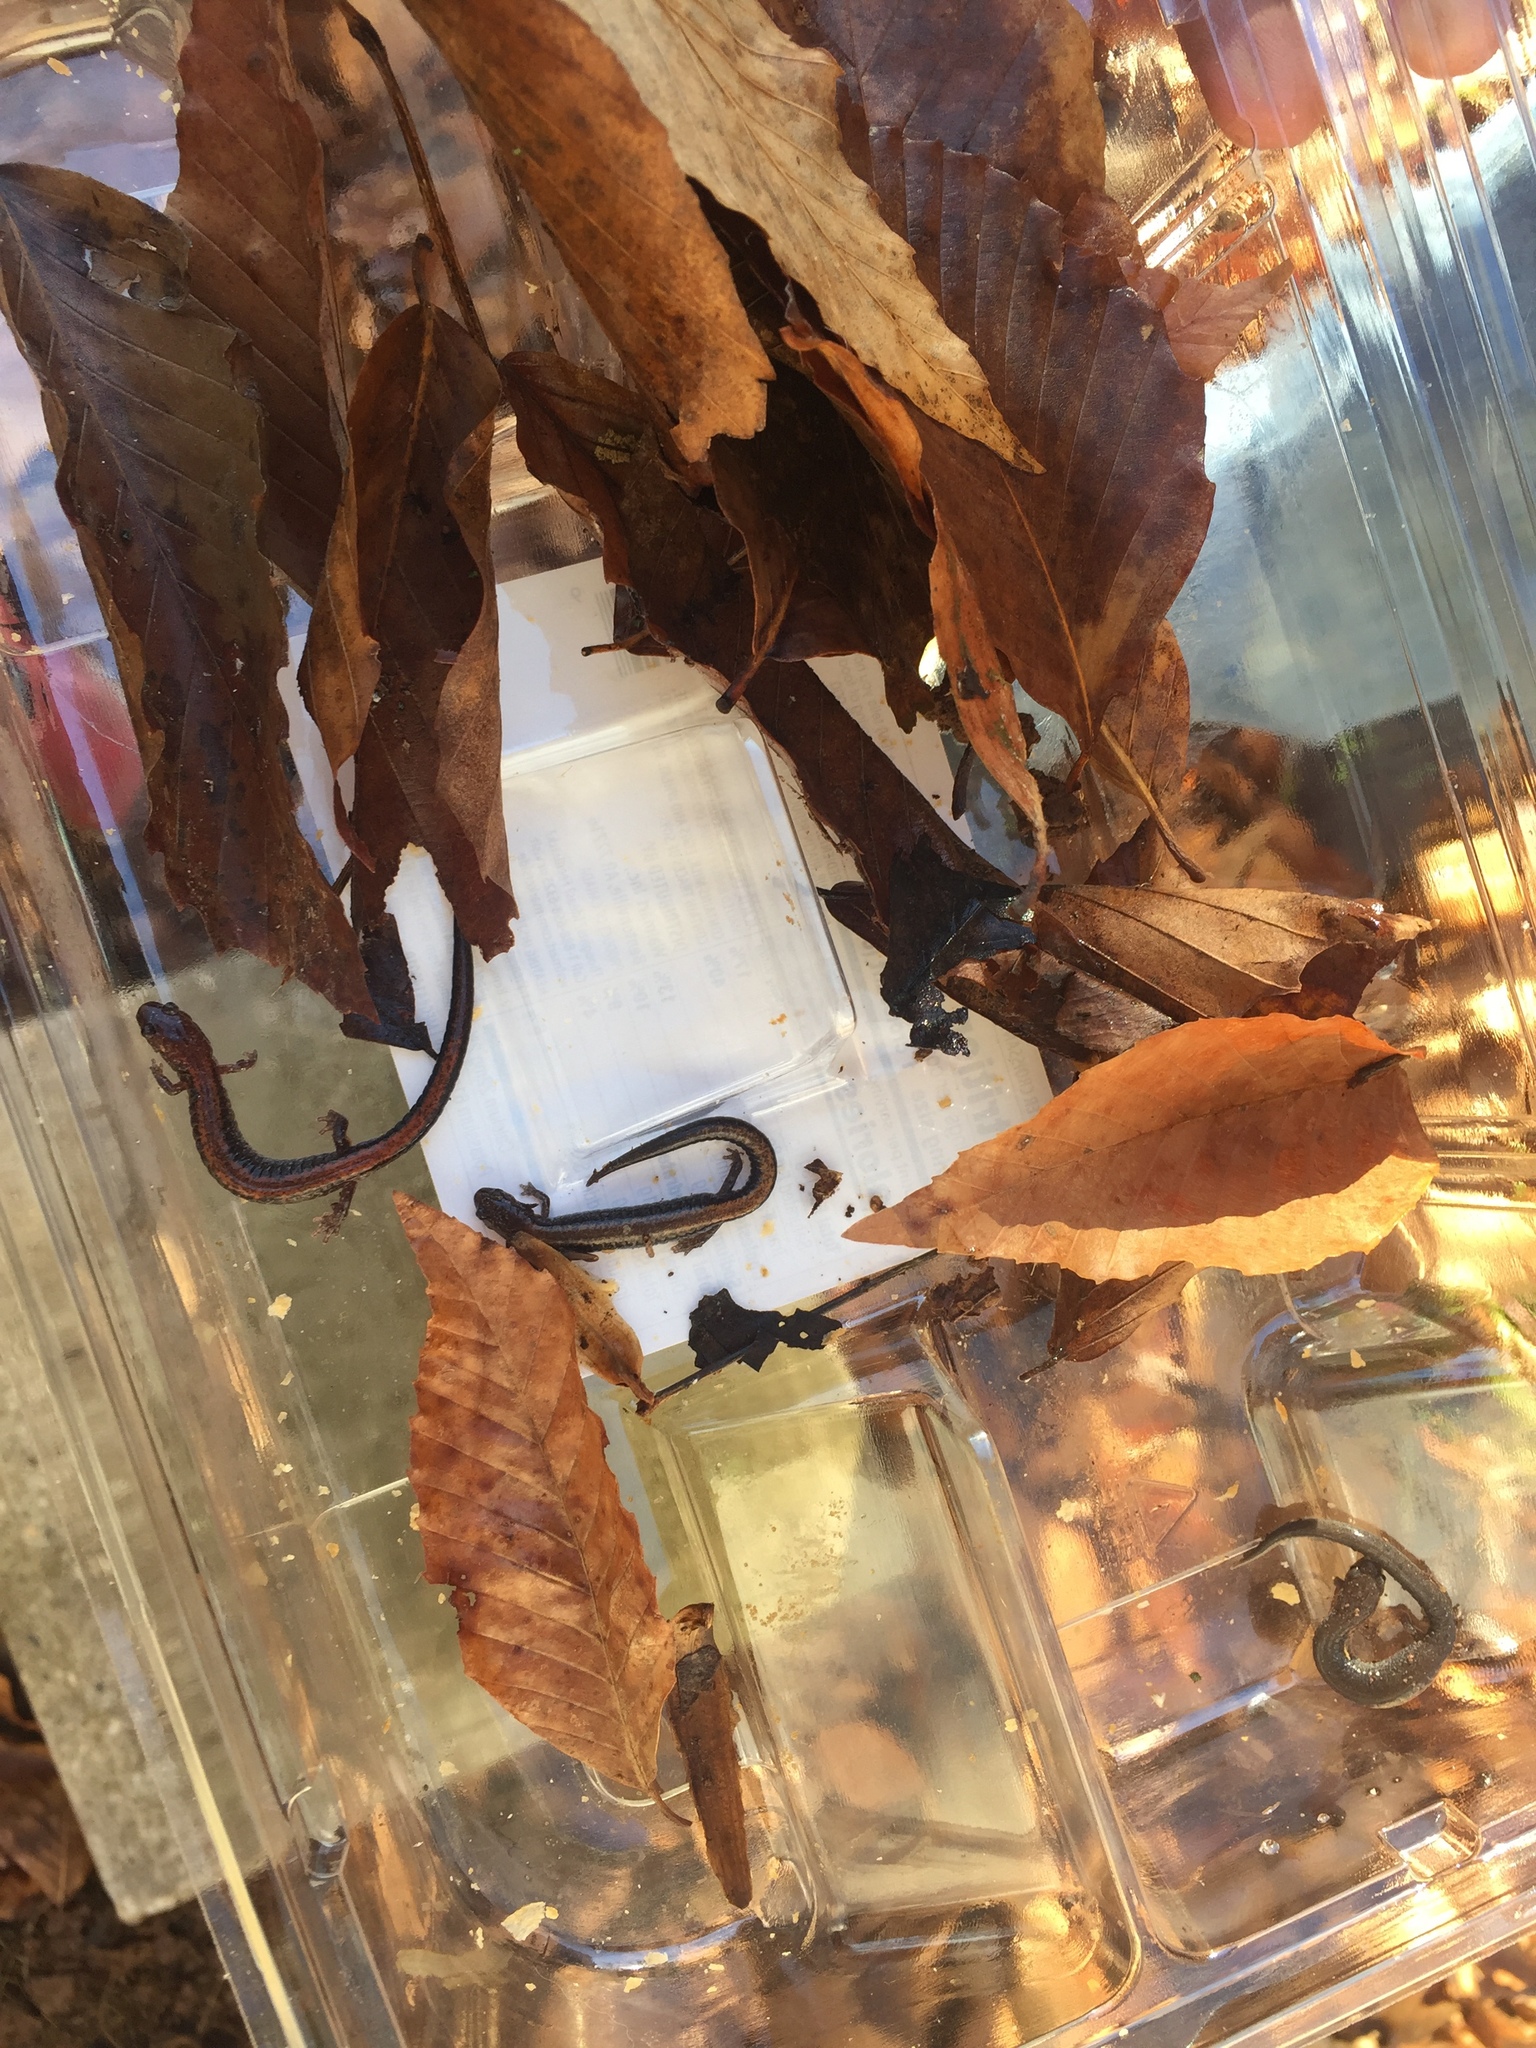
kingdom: Animalia
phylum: Chordata
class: Amphibia
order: Caudata
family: Plethodontidae
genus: Plethodon
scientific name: Plethodon cinereus
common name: Redback salamander
